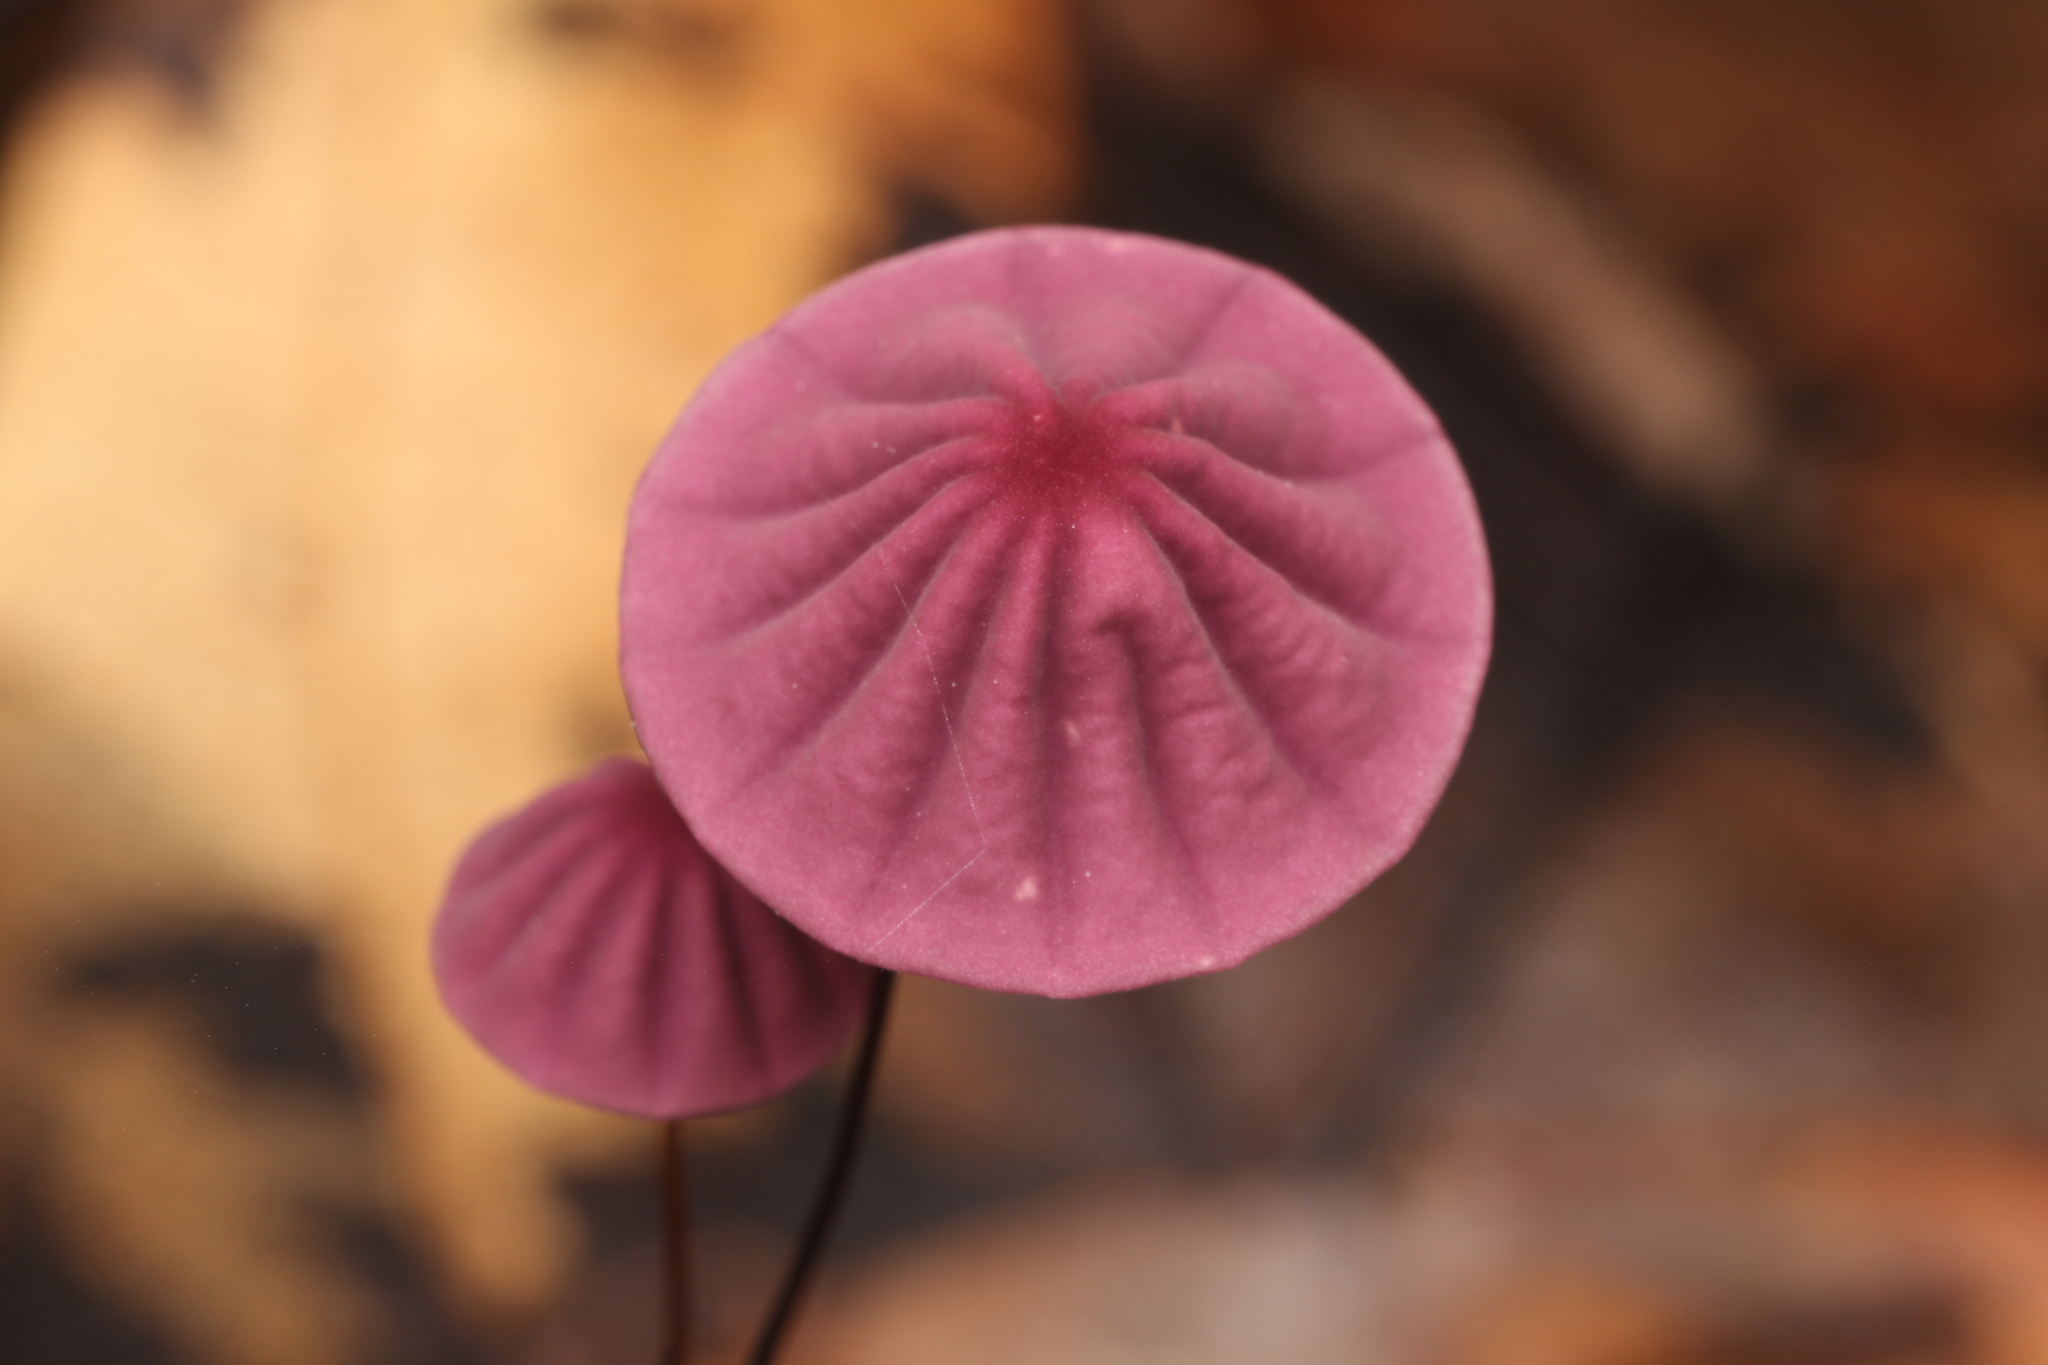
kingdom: Fungi
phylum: Basidiomycota
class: Agaricomycetes
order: Agaricales
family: Marasmiaceae
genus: Marasmius
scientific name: Marasmius haematocephalus
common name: Purple pinwheel
